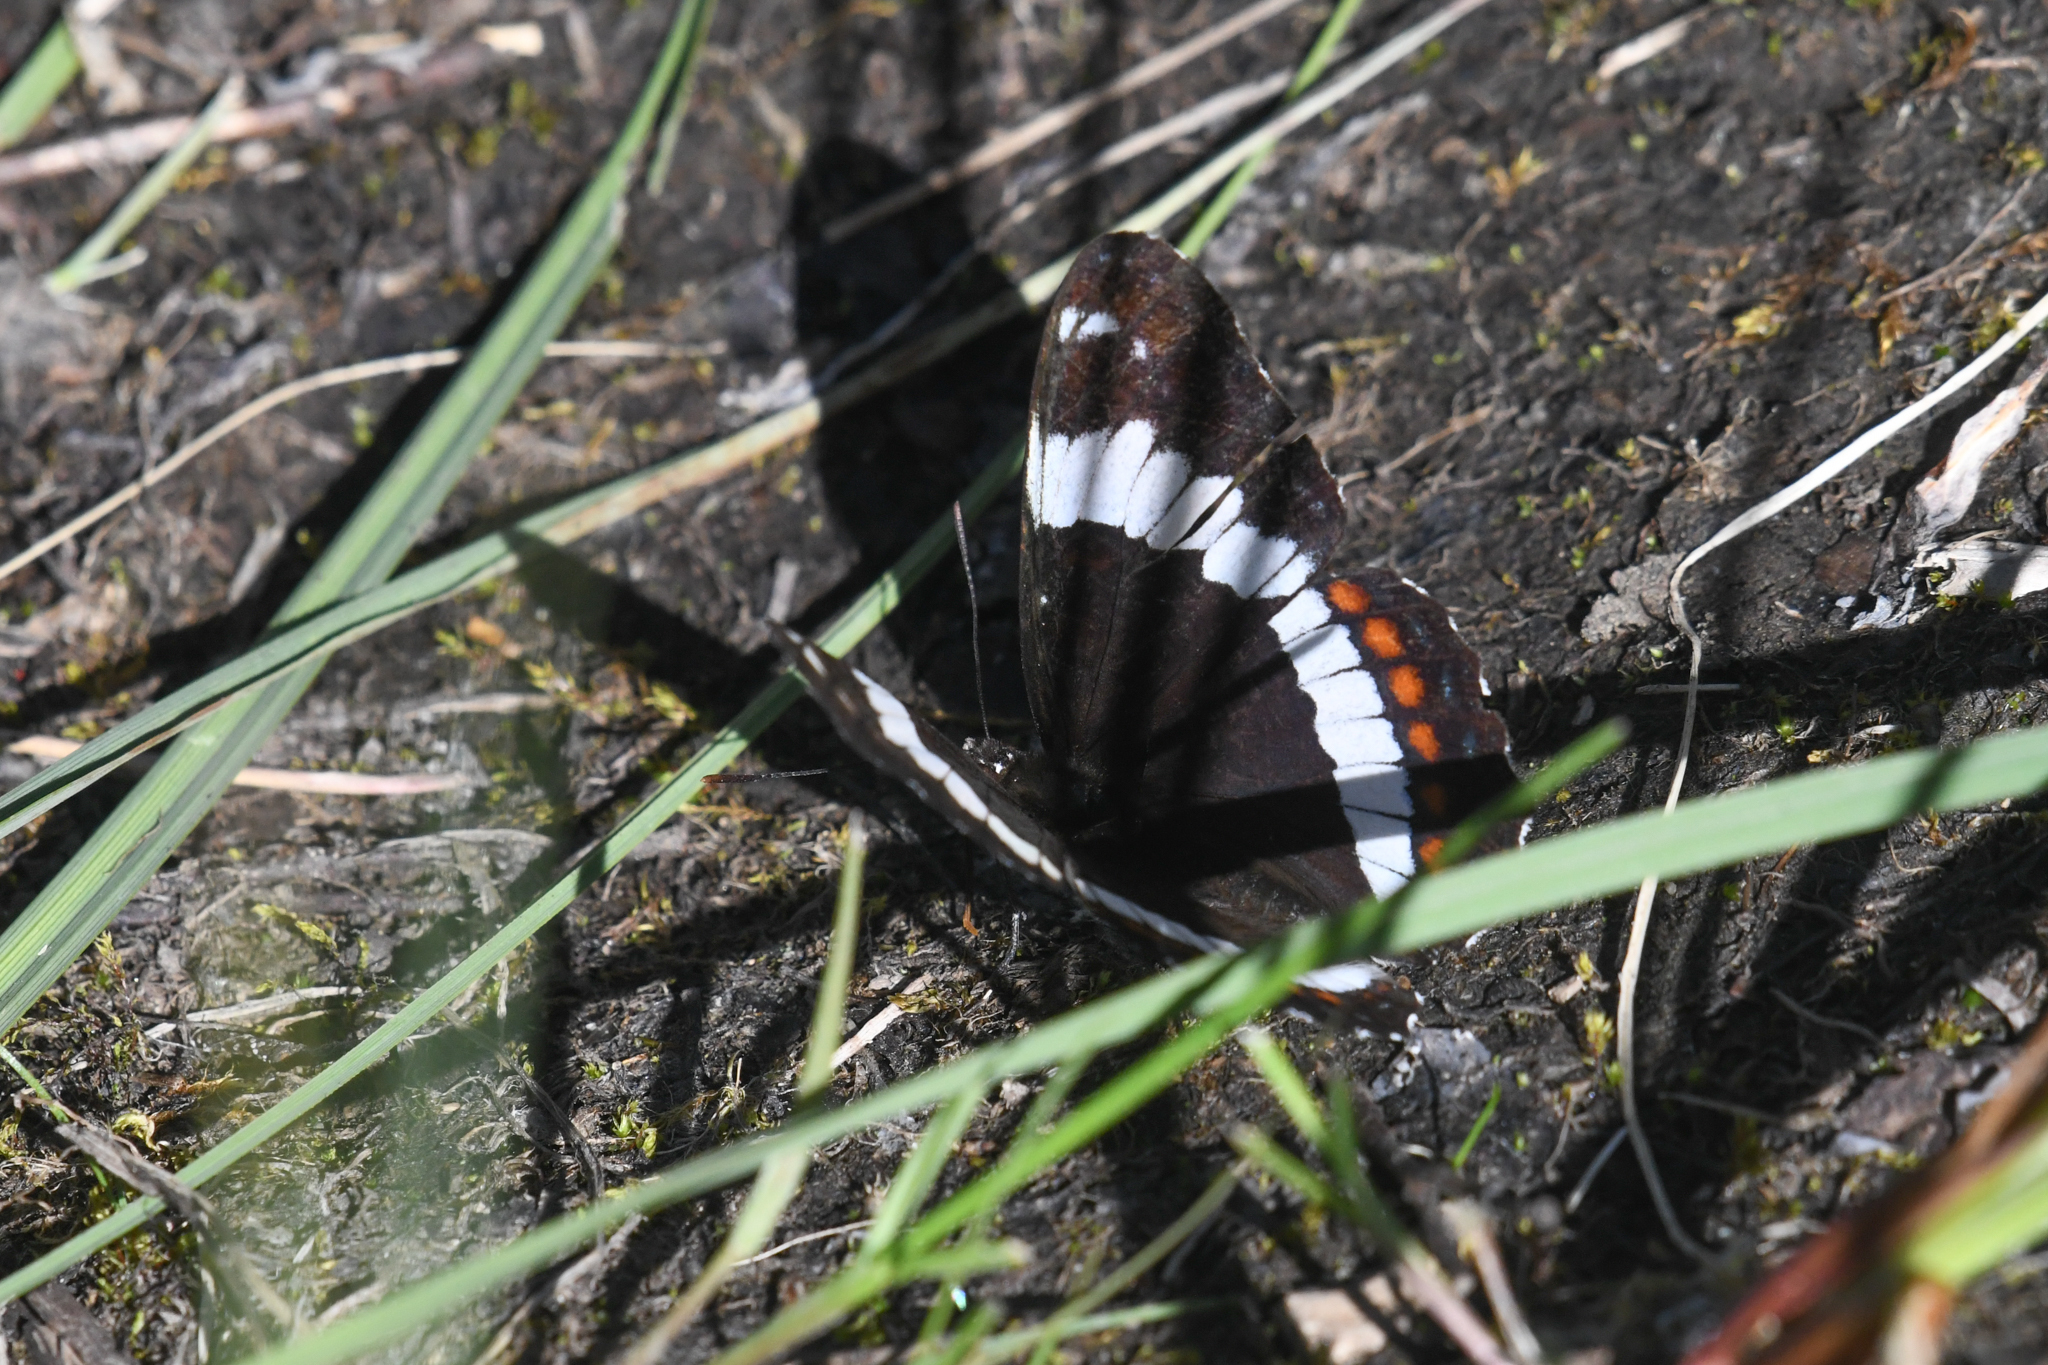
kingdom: Animalia
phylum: Arthropoda
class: Insecta
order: Lepidoptera
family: Nymphalidae
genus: Limenitis
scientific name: Limenitis arthemis
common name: Red-spotted admiral
